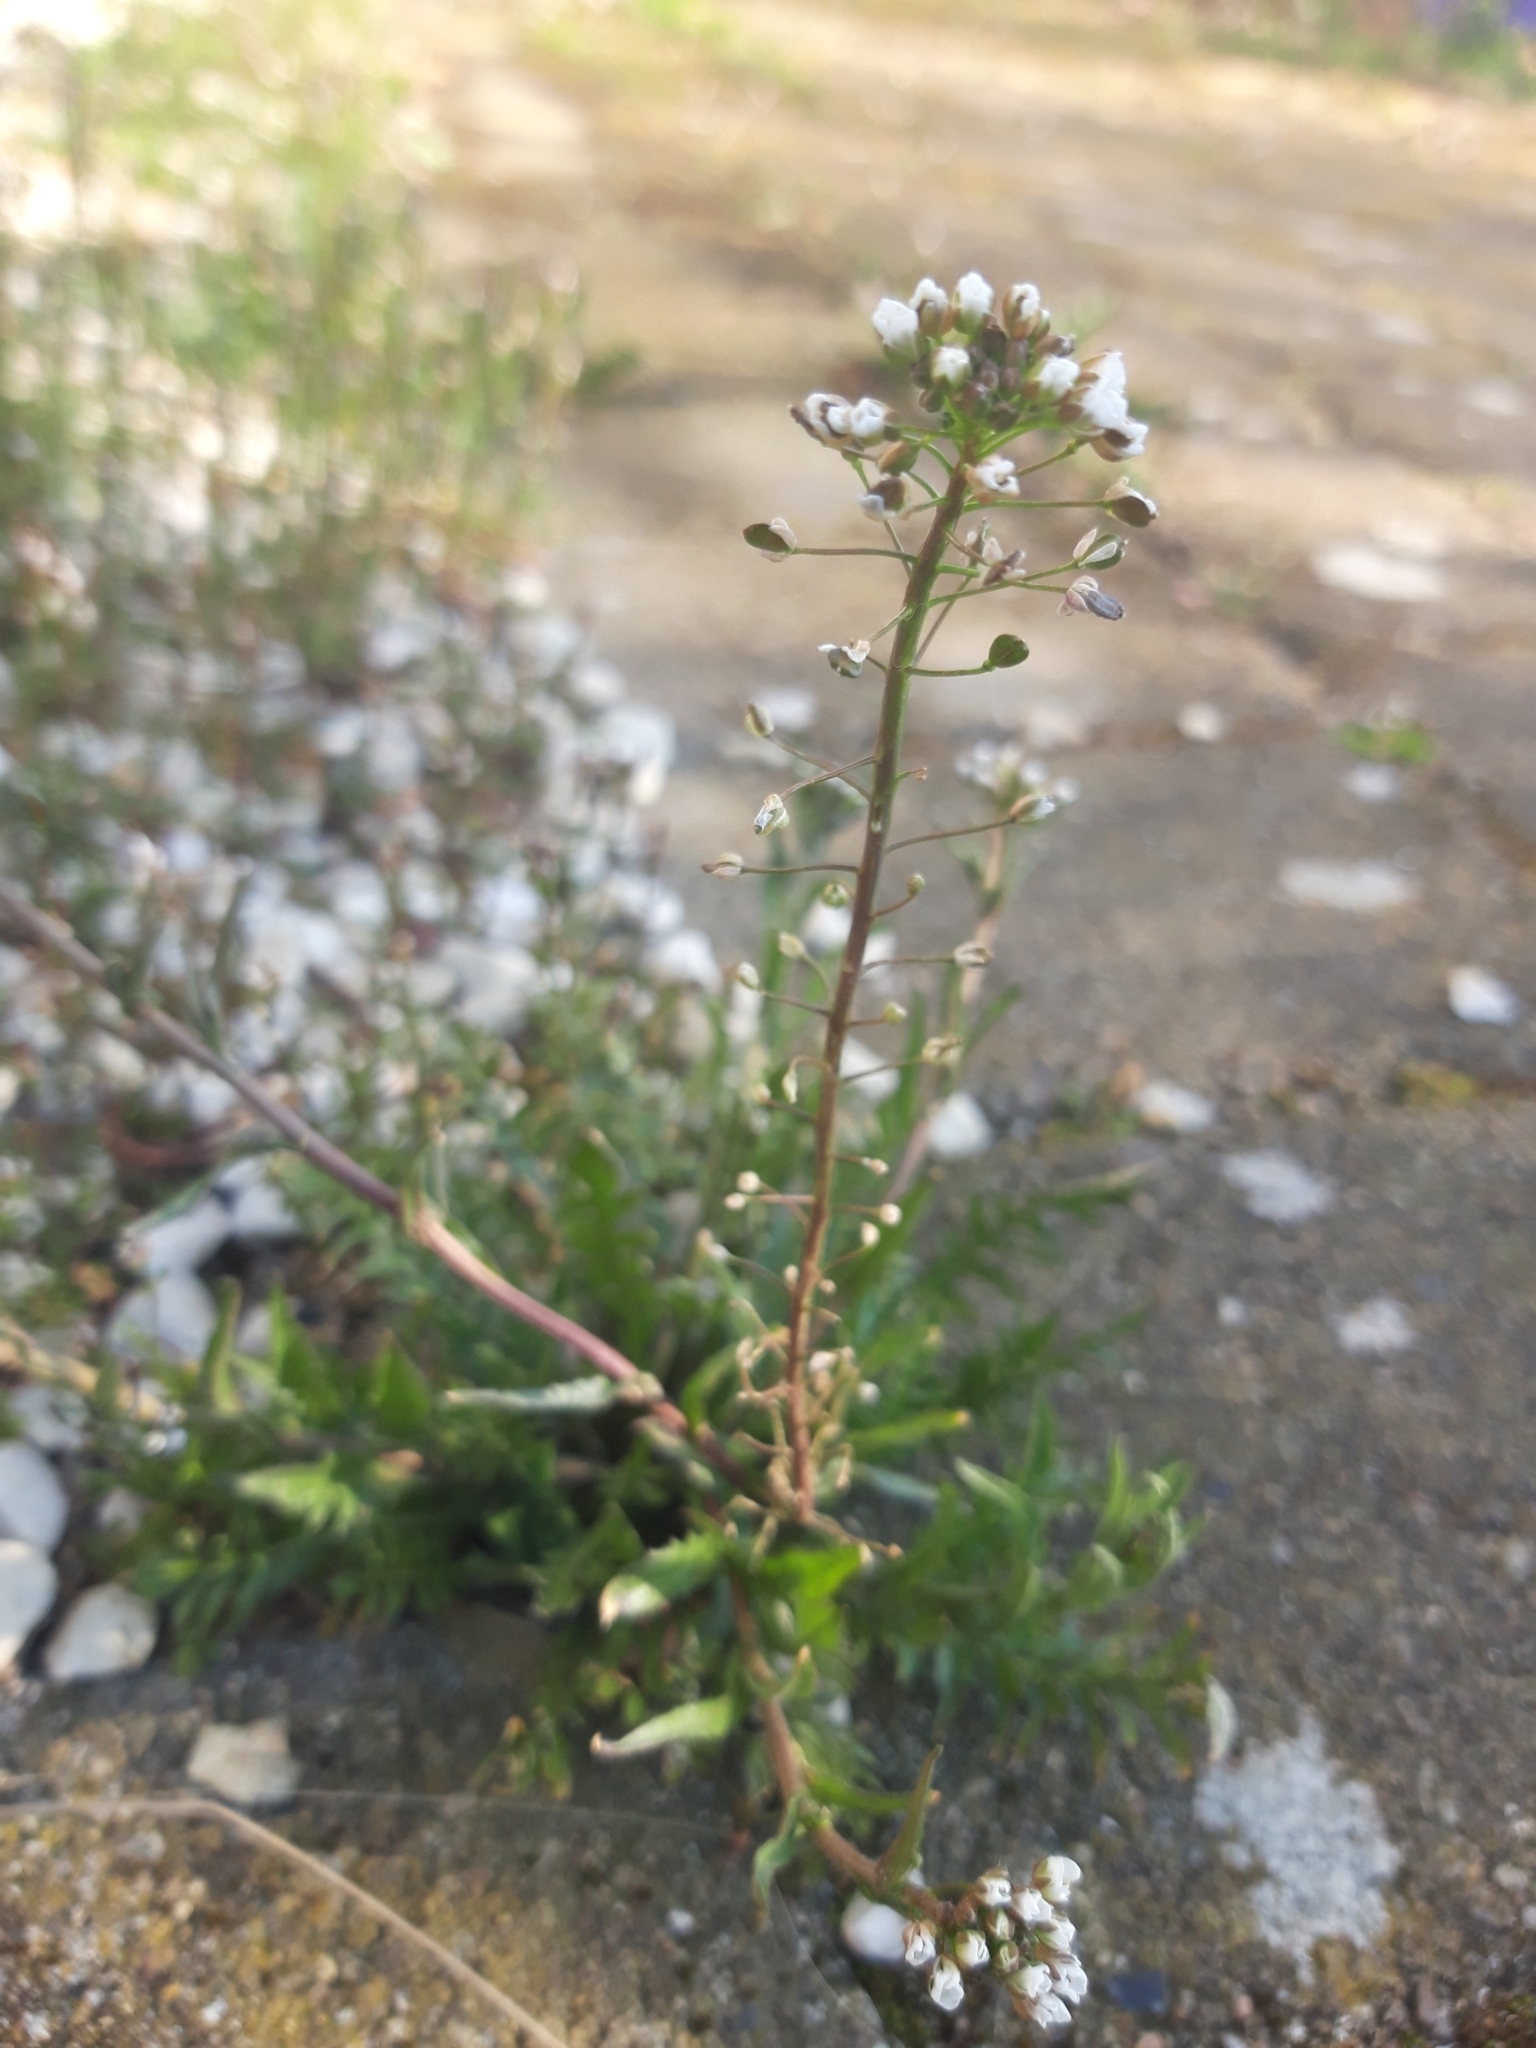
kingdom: Plantae
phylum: Tracheophyta
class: Magnoliopsida
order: Brassicales
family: Brassicaceae
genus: Capsella
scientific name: Capsella bursa-pastoris
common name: Shepherd's purse
